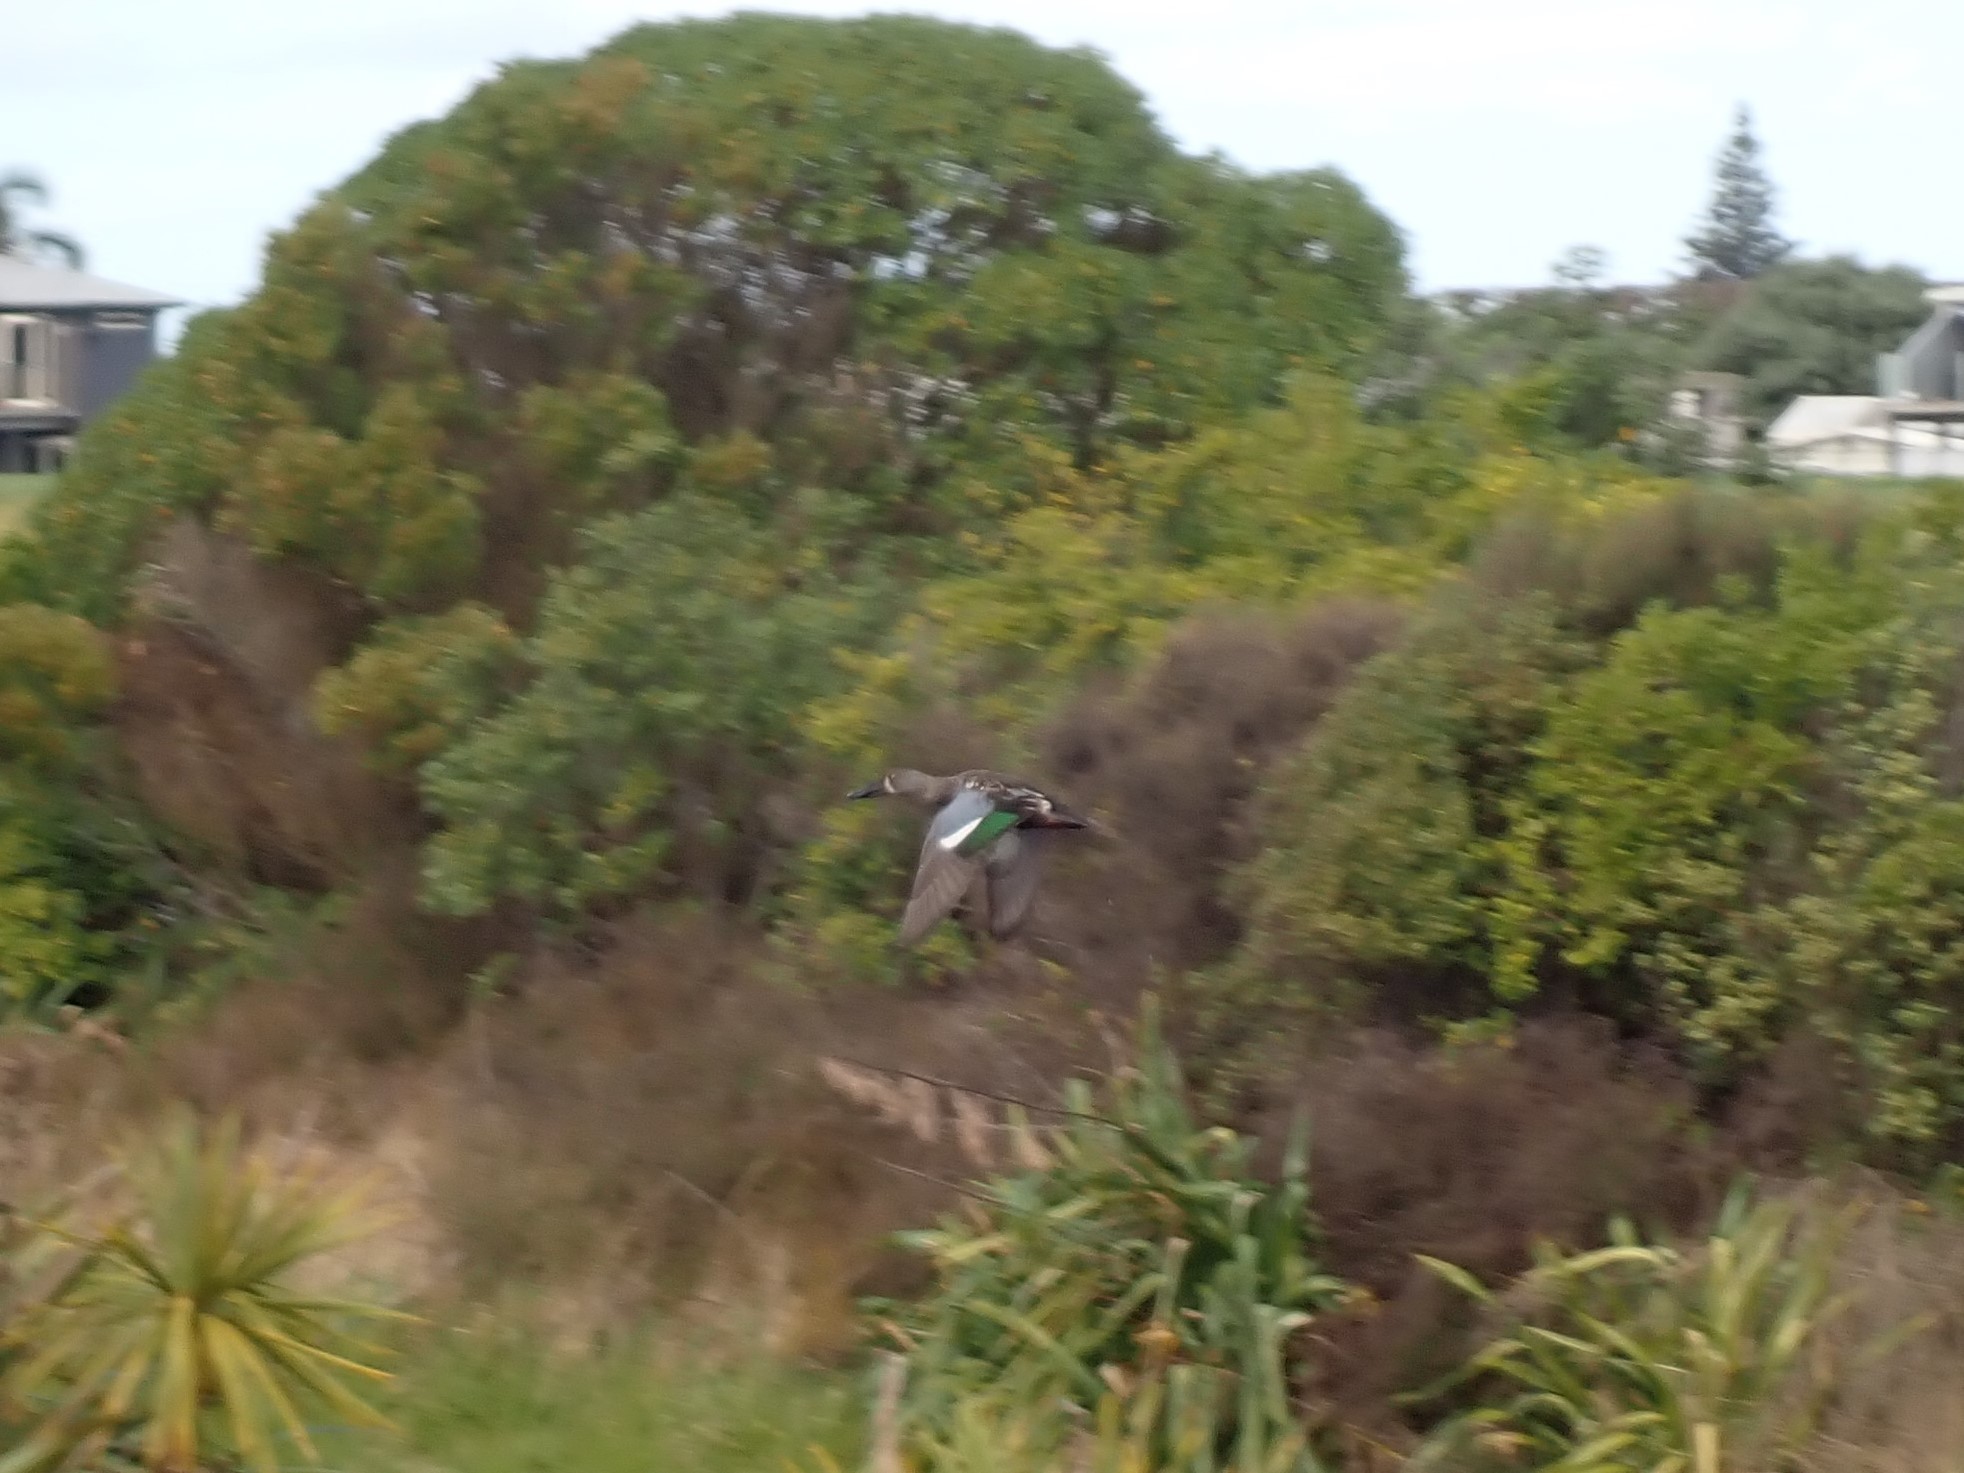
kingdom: Animalia
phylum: Chordata
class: Aves
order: Anseriformes
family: Anatidae
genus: Spatula
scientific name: Spatula rhynchotis
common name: Australian shoveler
